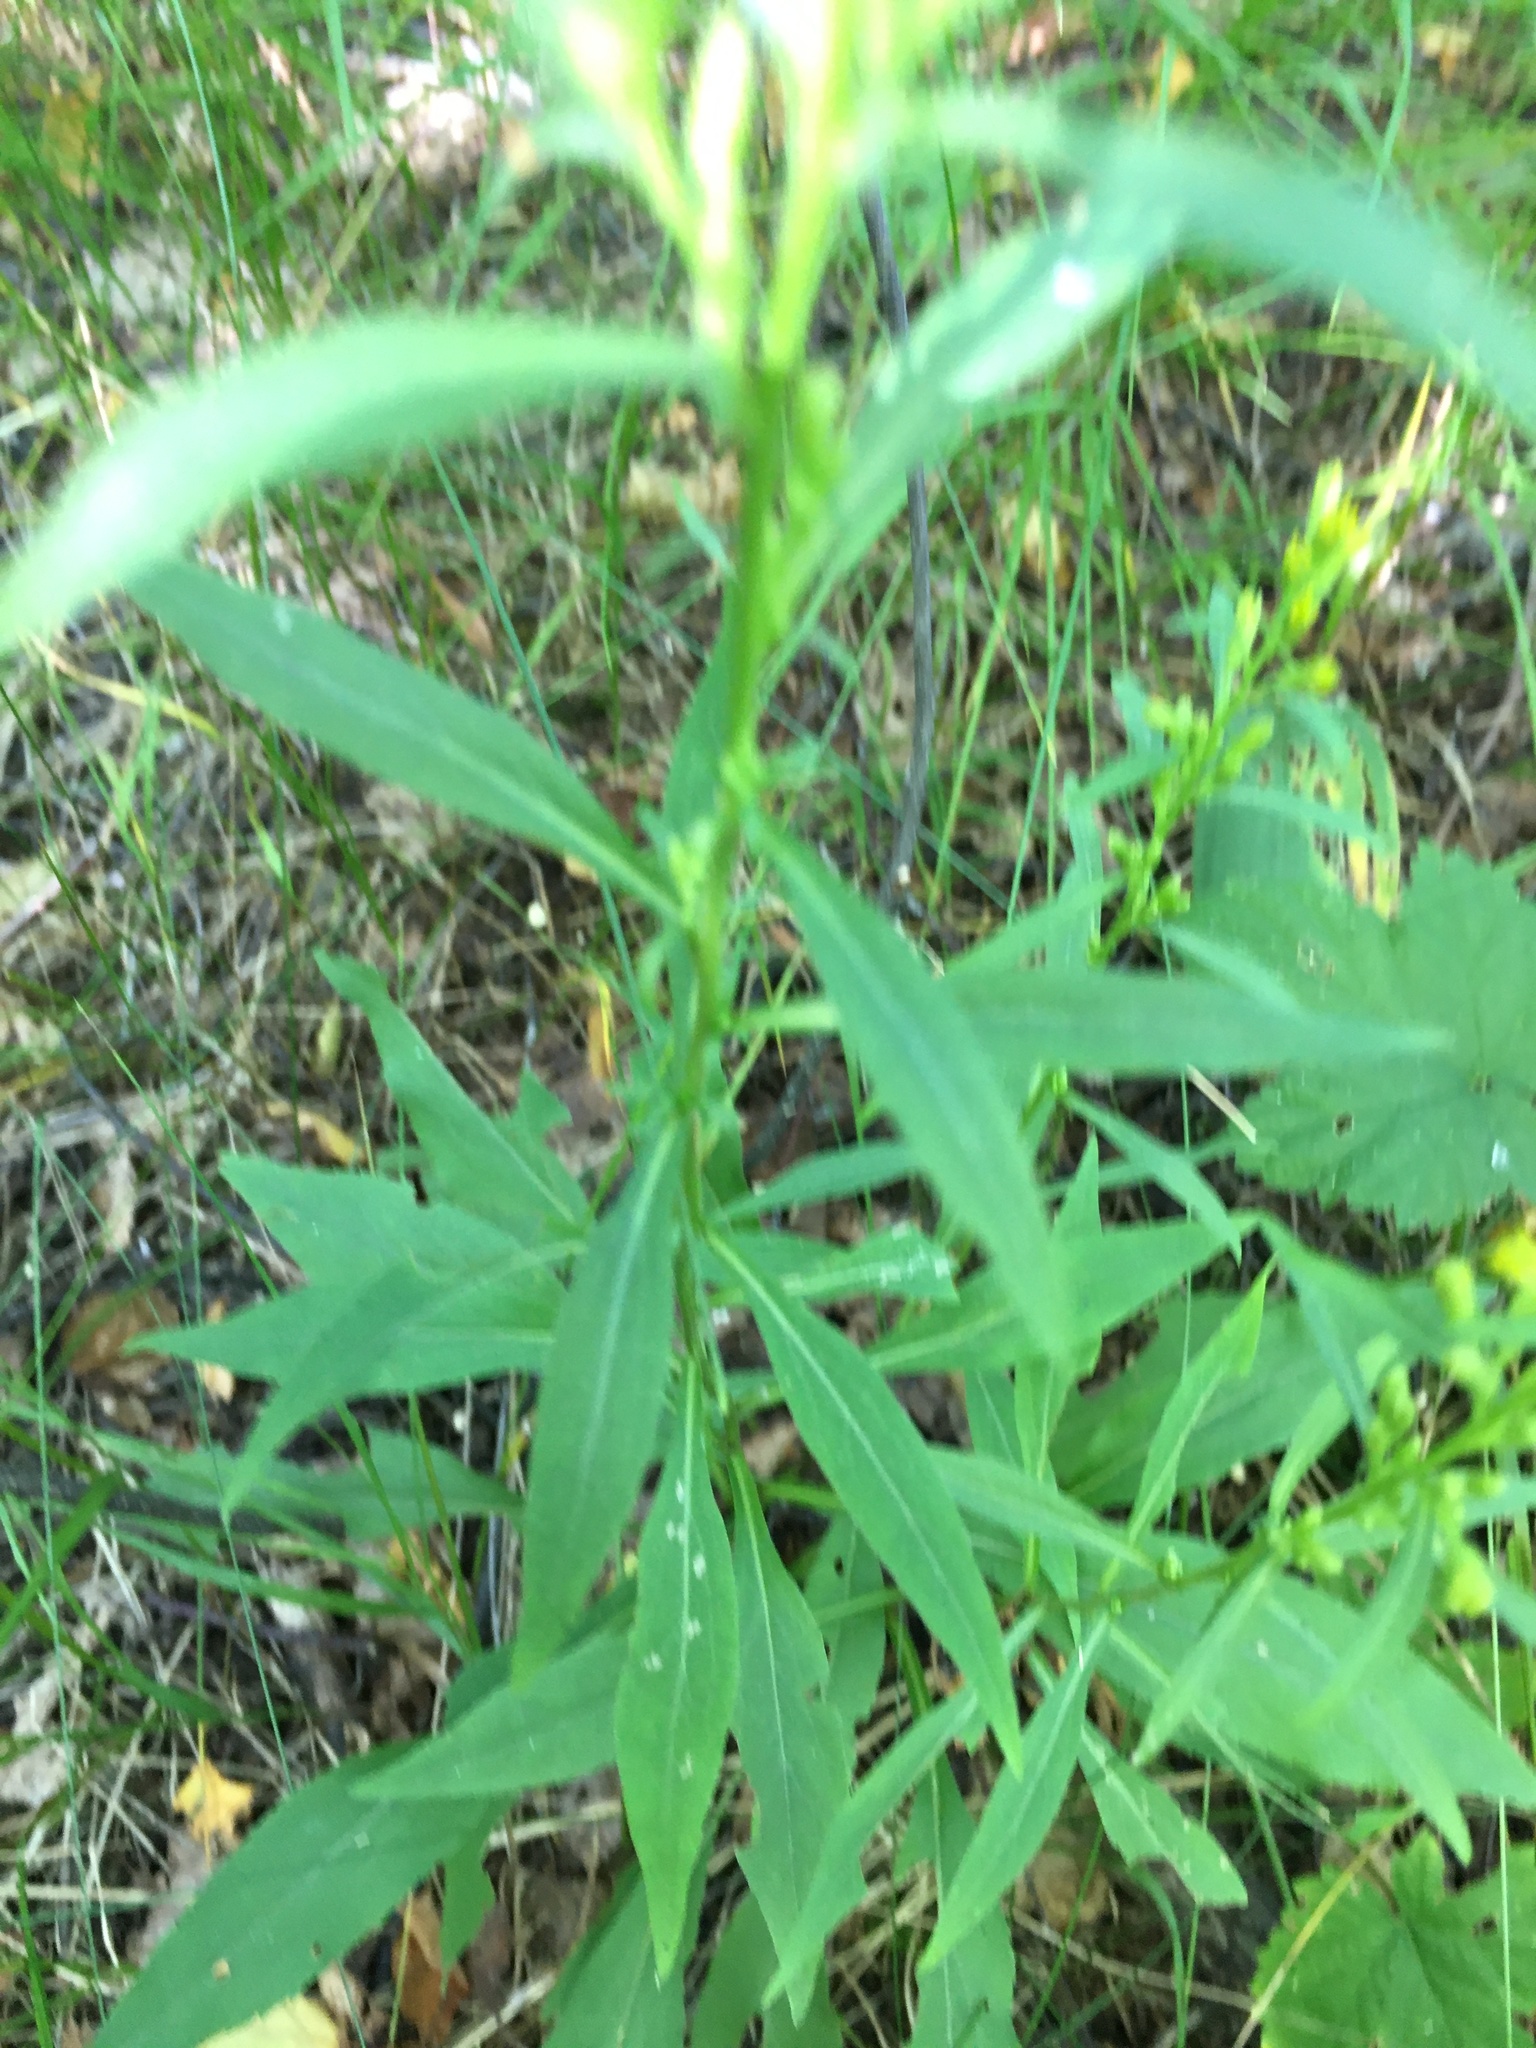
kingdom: Plantae
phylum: Tracheophyta
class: Magnoliopsida
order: Asterales
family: Asteraceae
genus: Solidago
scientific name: Solidago virgaurea
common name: Goldenrod
